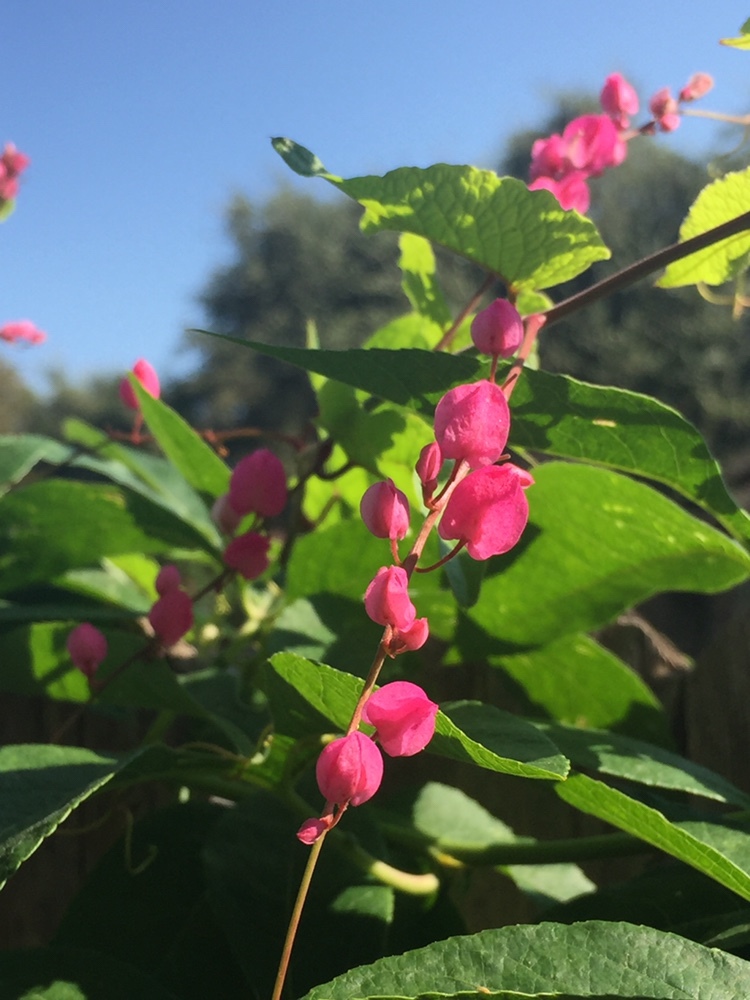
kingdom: Plantae
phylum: Tracheophyta
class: Magnoliopsida
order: Caryophyllales
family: Polygonaceae
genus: Antigonon
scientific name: Antigonon leptopus
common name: Coral vine
